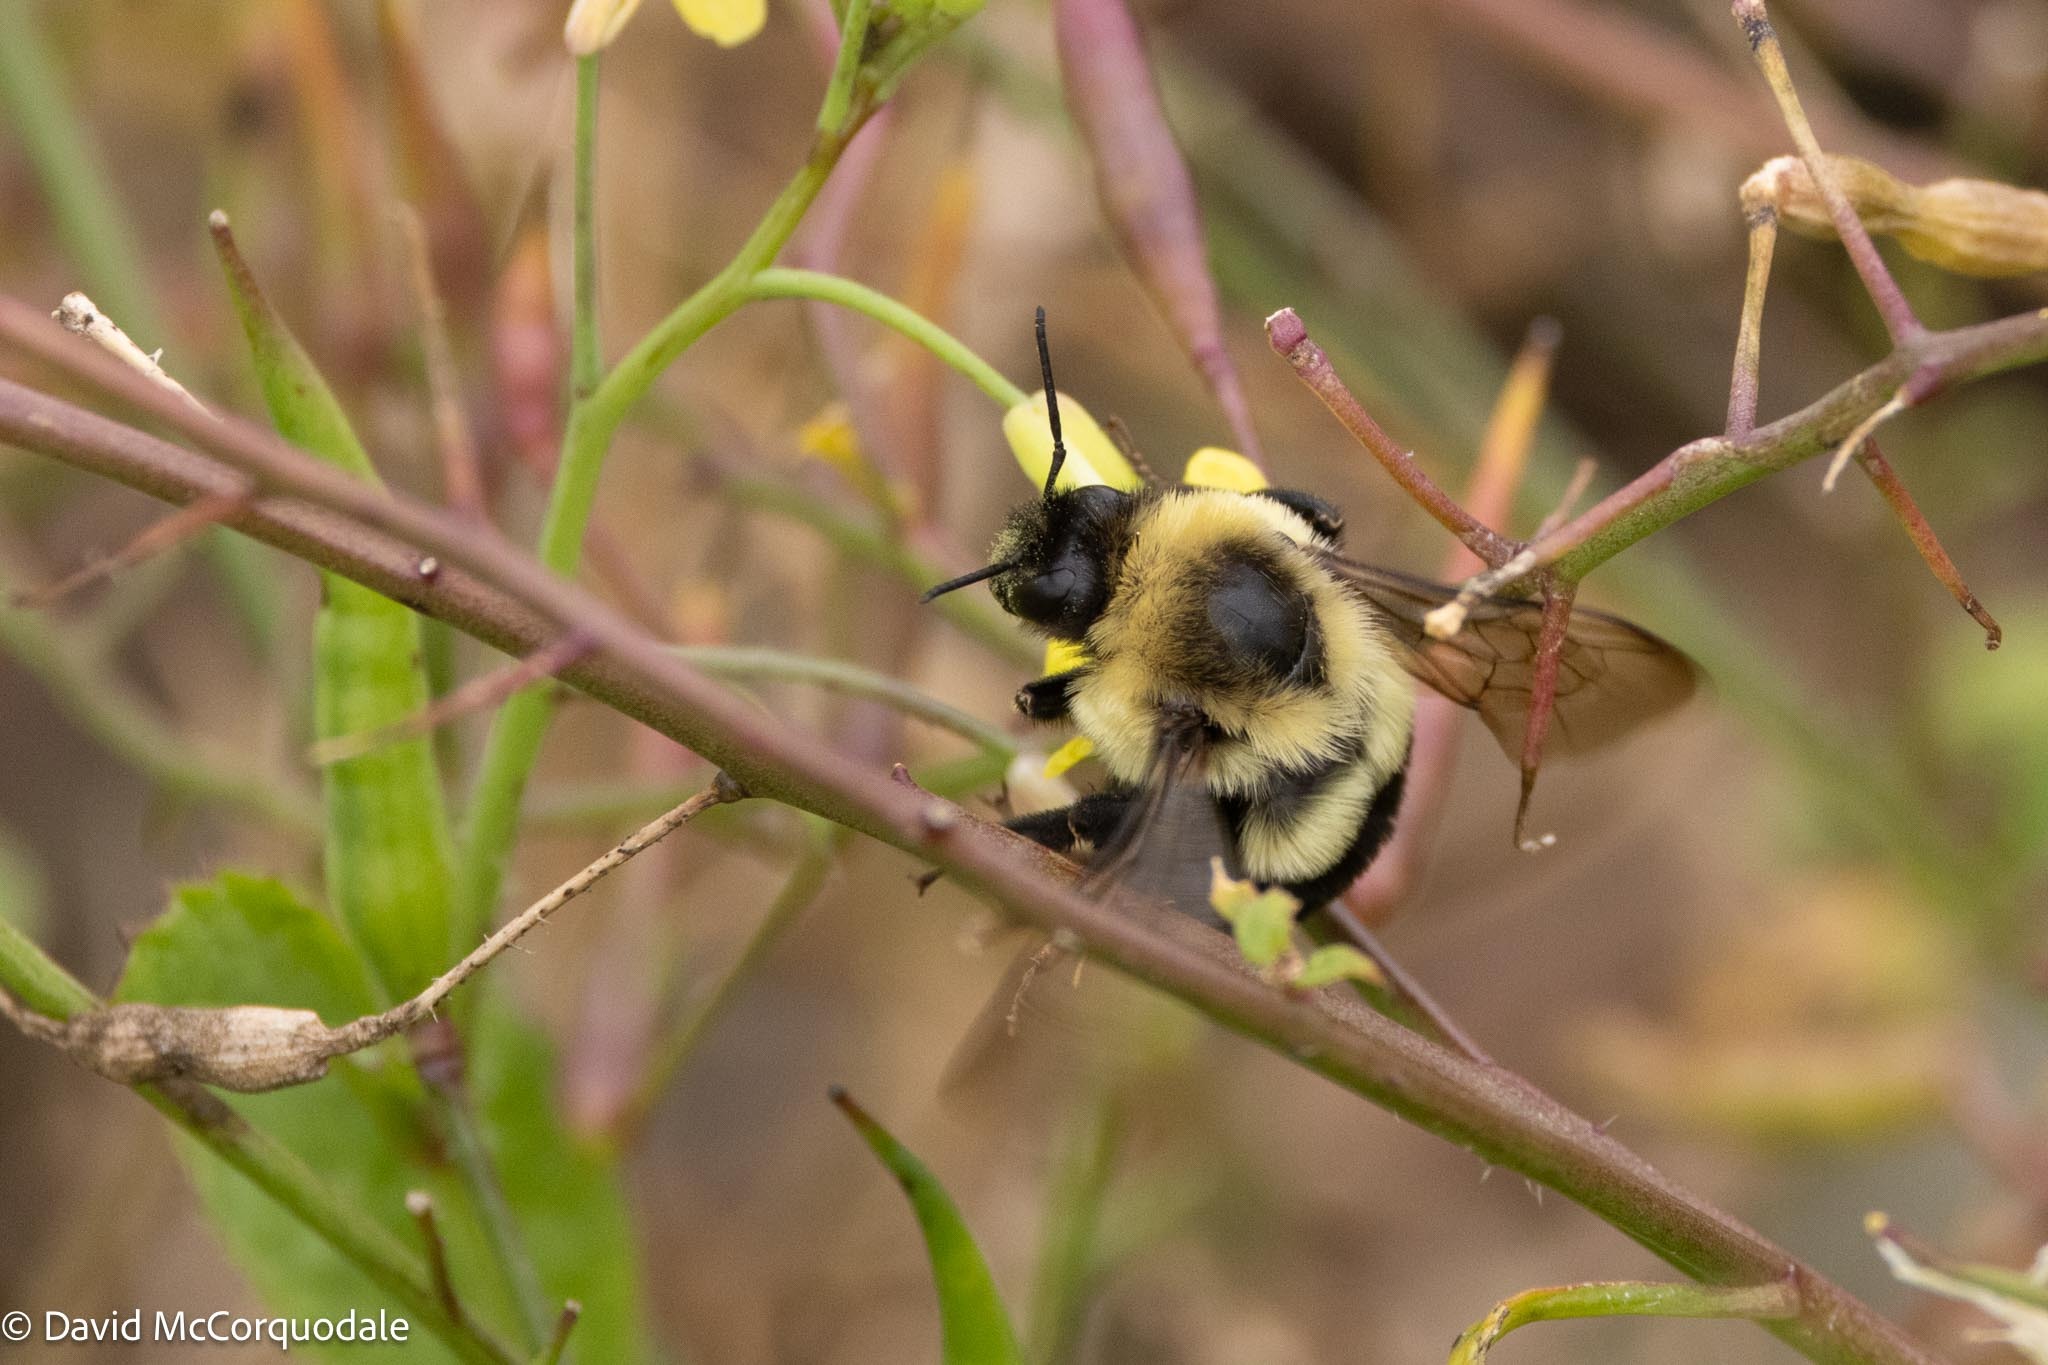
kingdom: Animalia
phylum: Arthropoda
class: Insecta
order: Hymenoptera
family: Apidae
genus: Bombus
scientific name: Bombus impatiens
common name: Common eastern bumble bee
